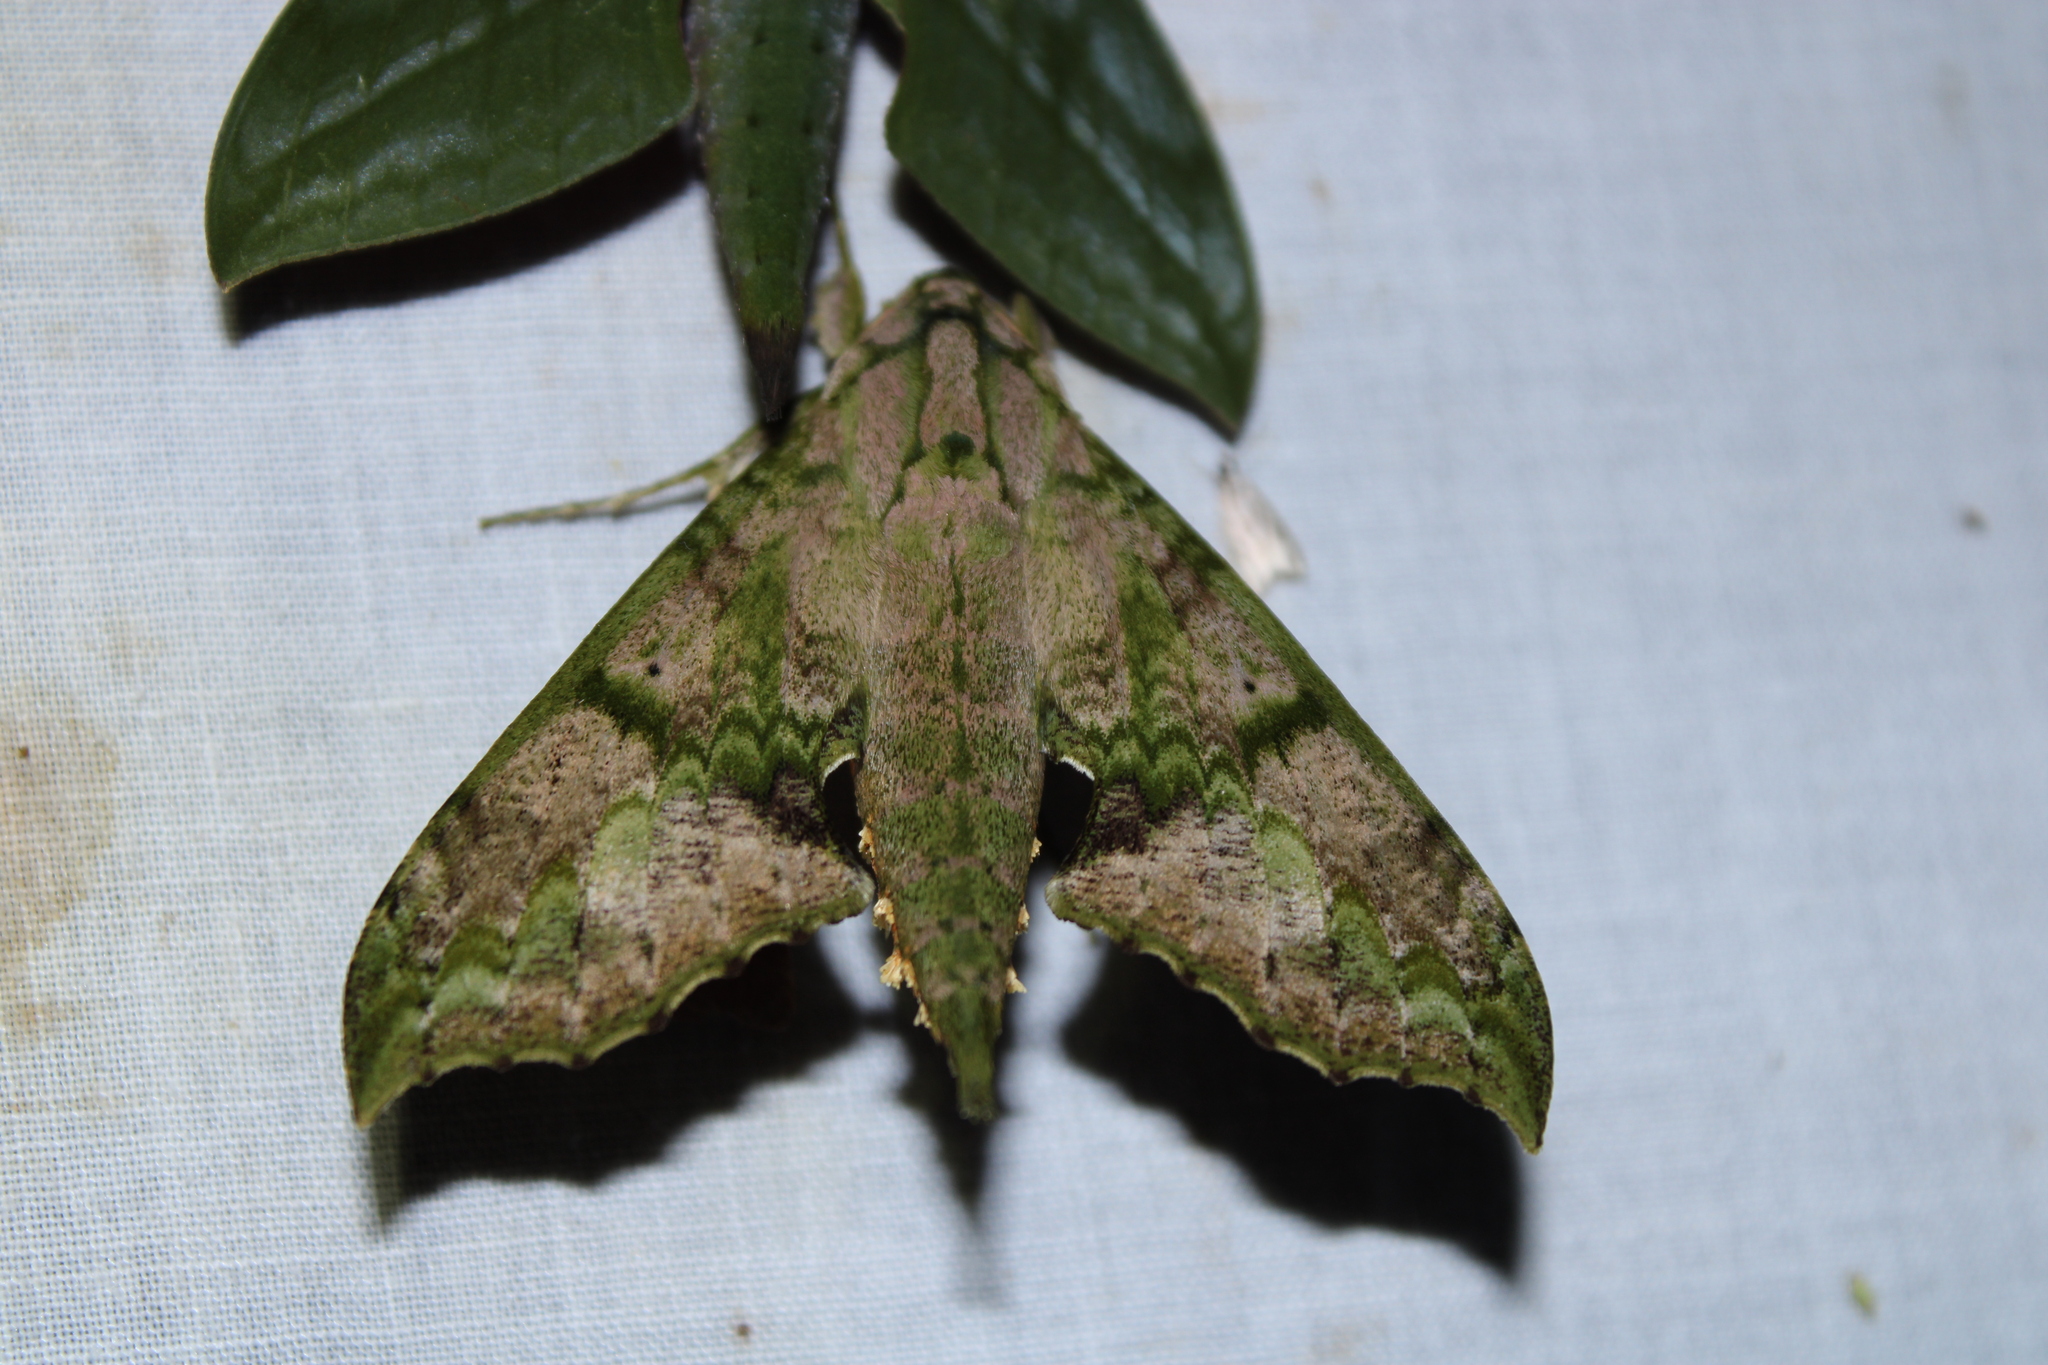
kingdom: Animalia
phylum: Arthropoda
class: Insecta
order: Lepidoptera
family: Sphingidae
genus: Xylophanes
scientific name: Xylophanes zurcheri
